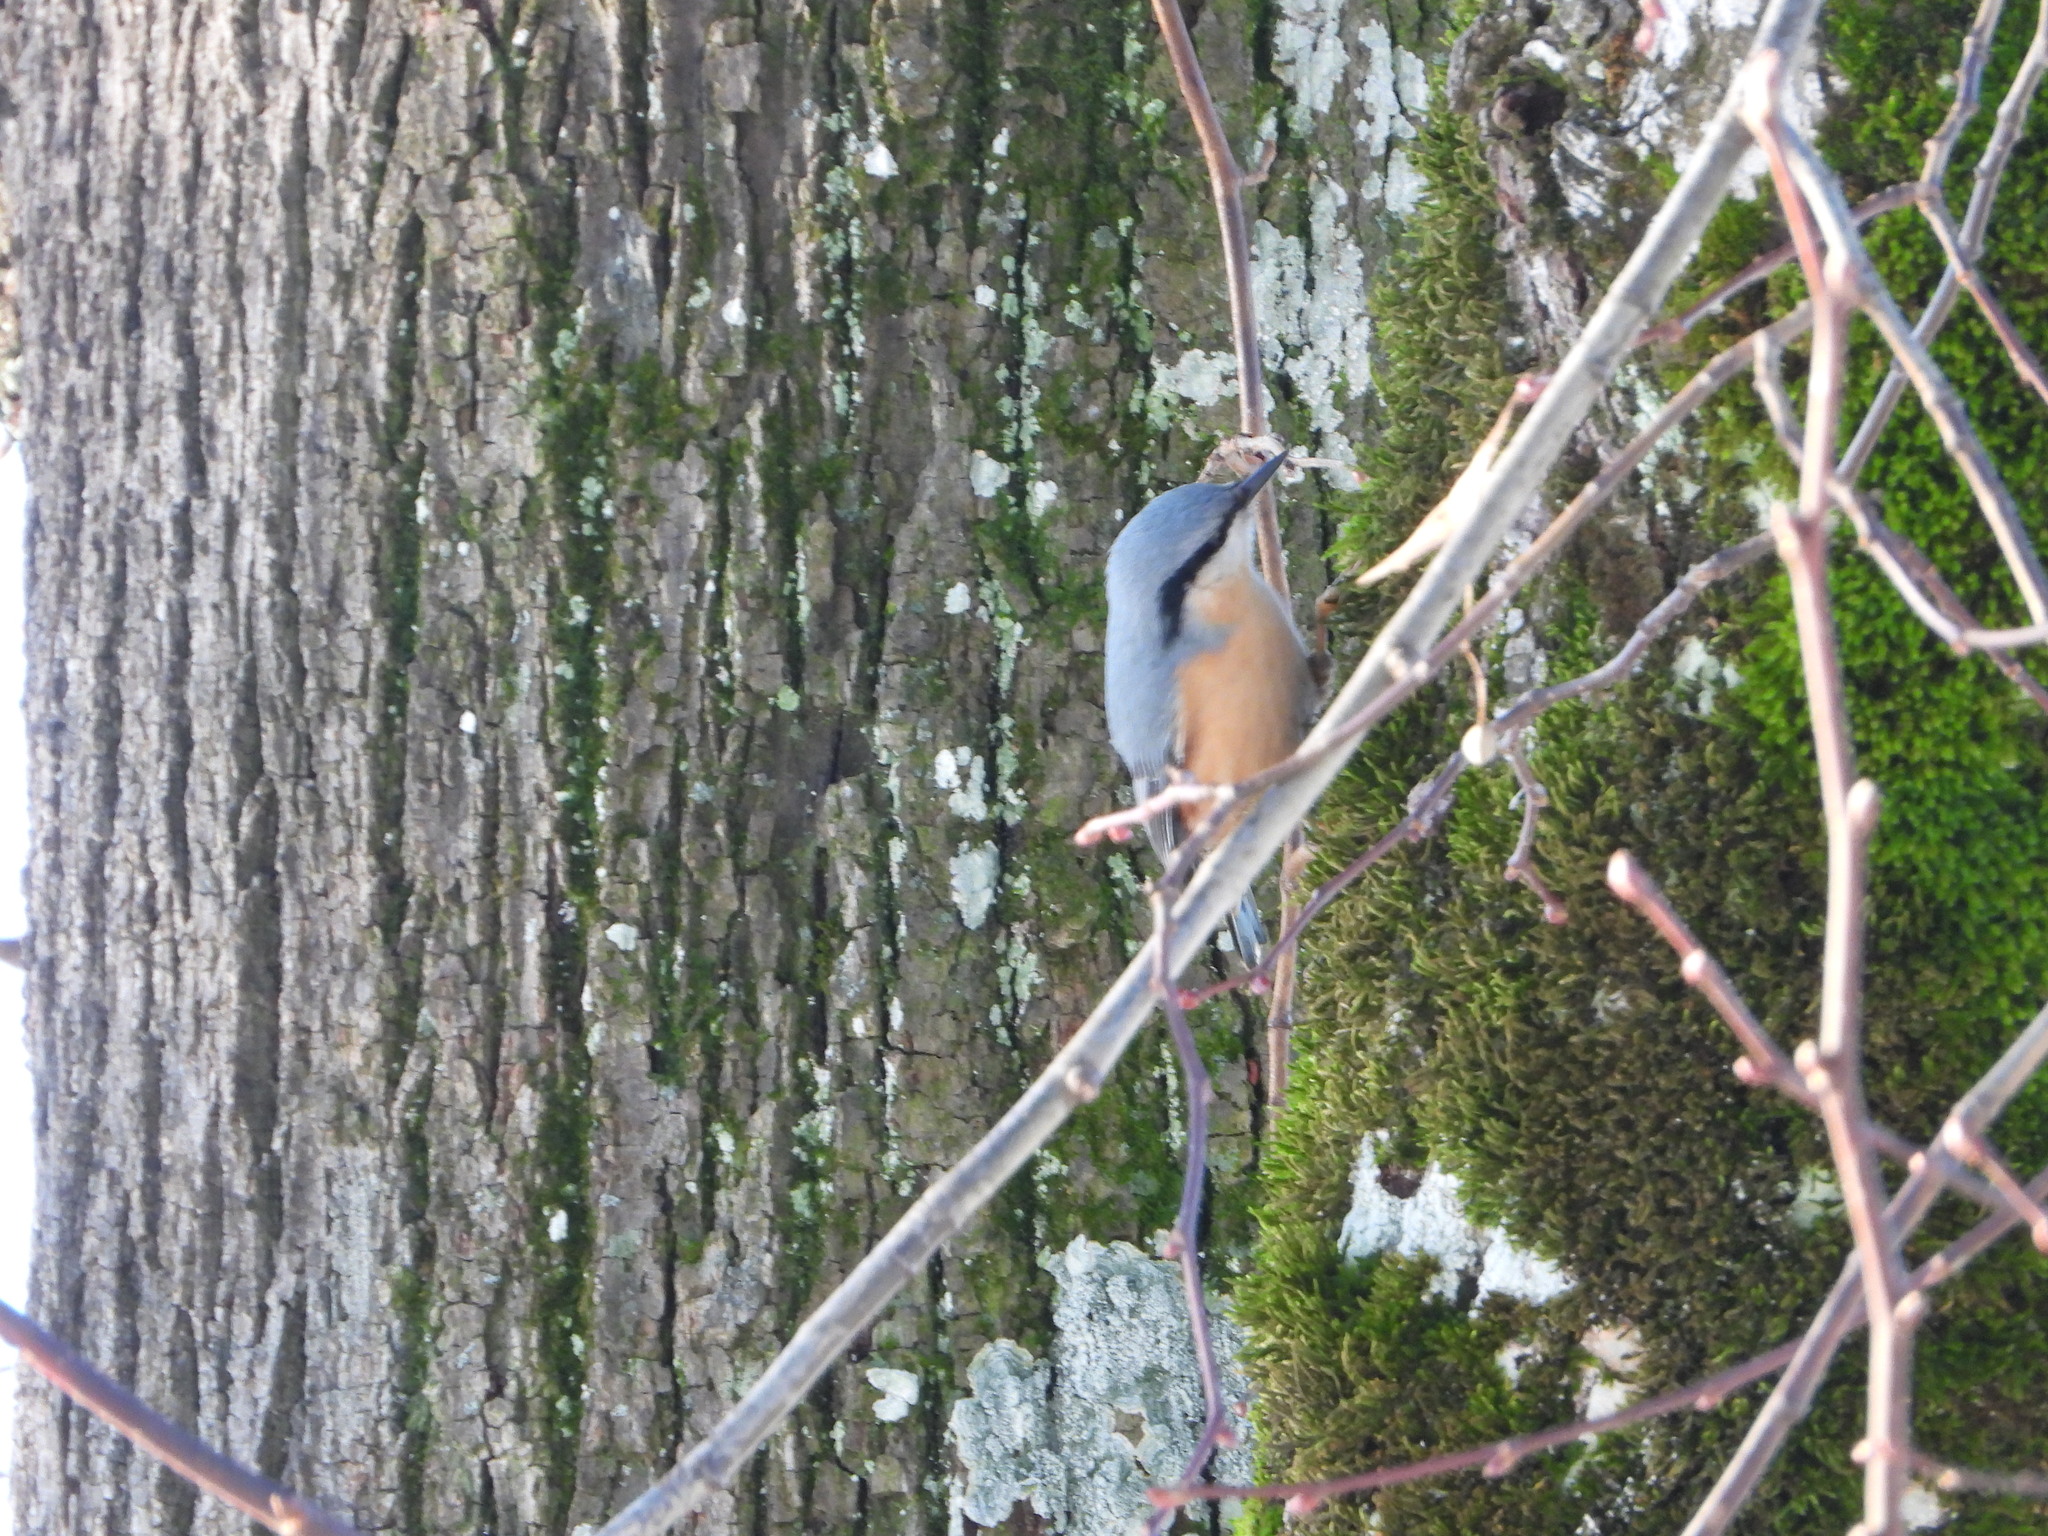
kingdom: Animalia
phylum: Chordata
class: Aves
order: Passeriformes
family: Sittidae
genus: Sitta
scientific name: Sitta europaea
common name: Eurasian nuthatch
